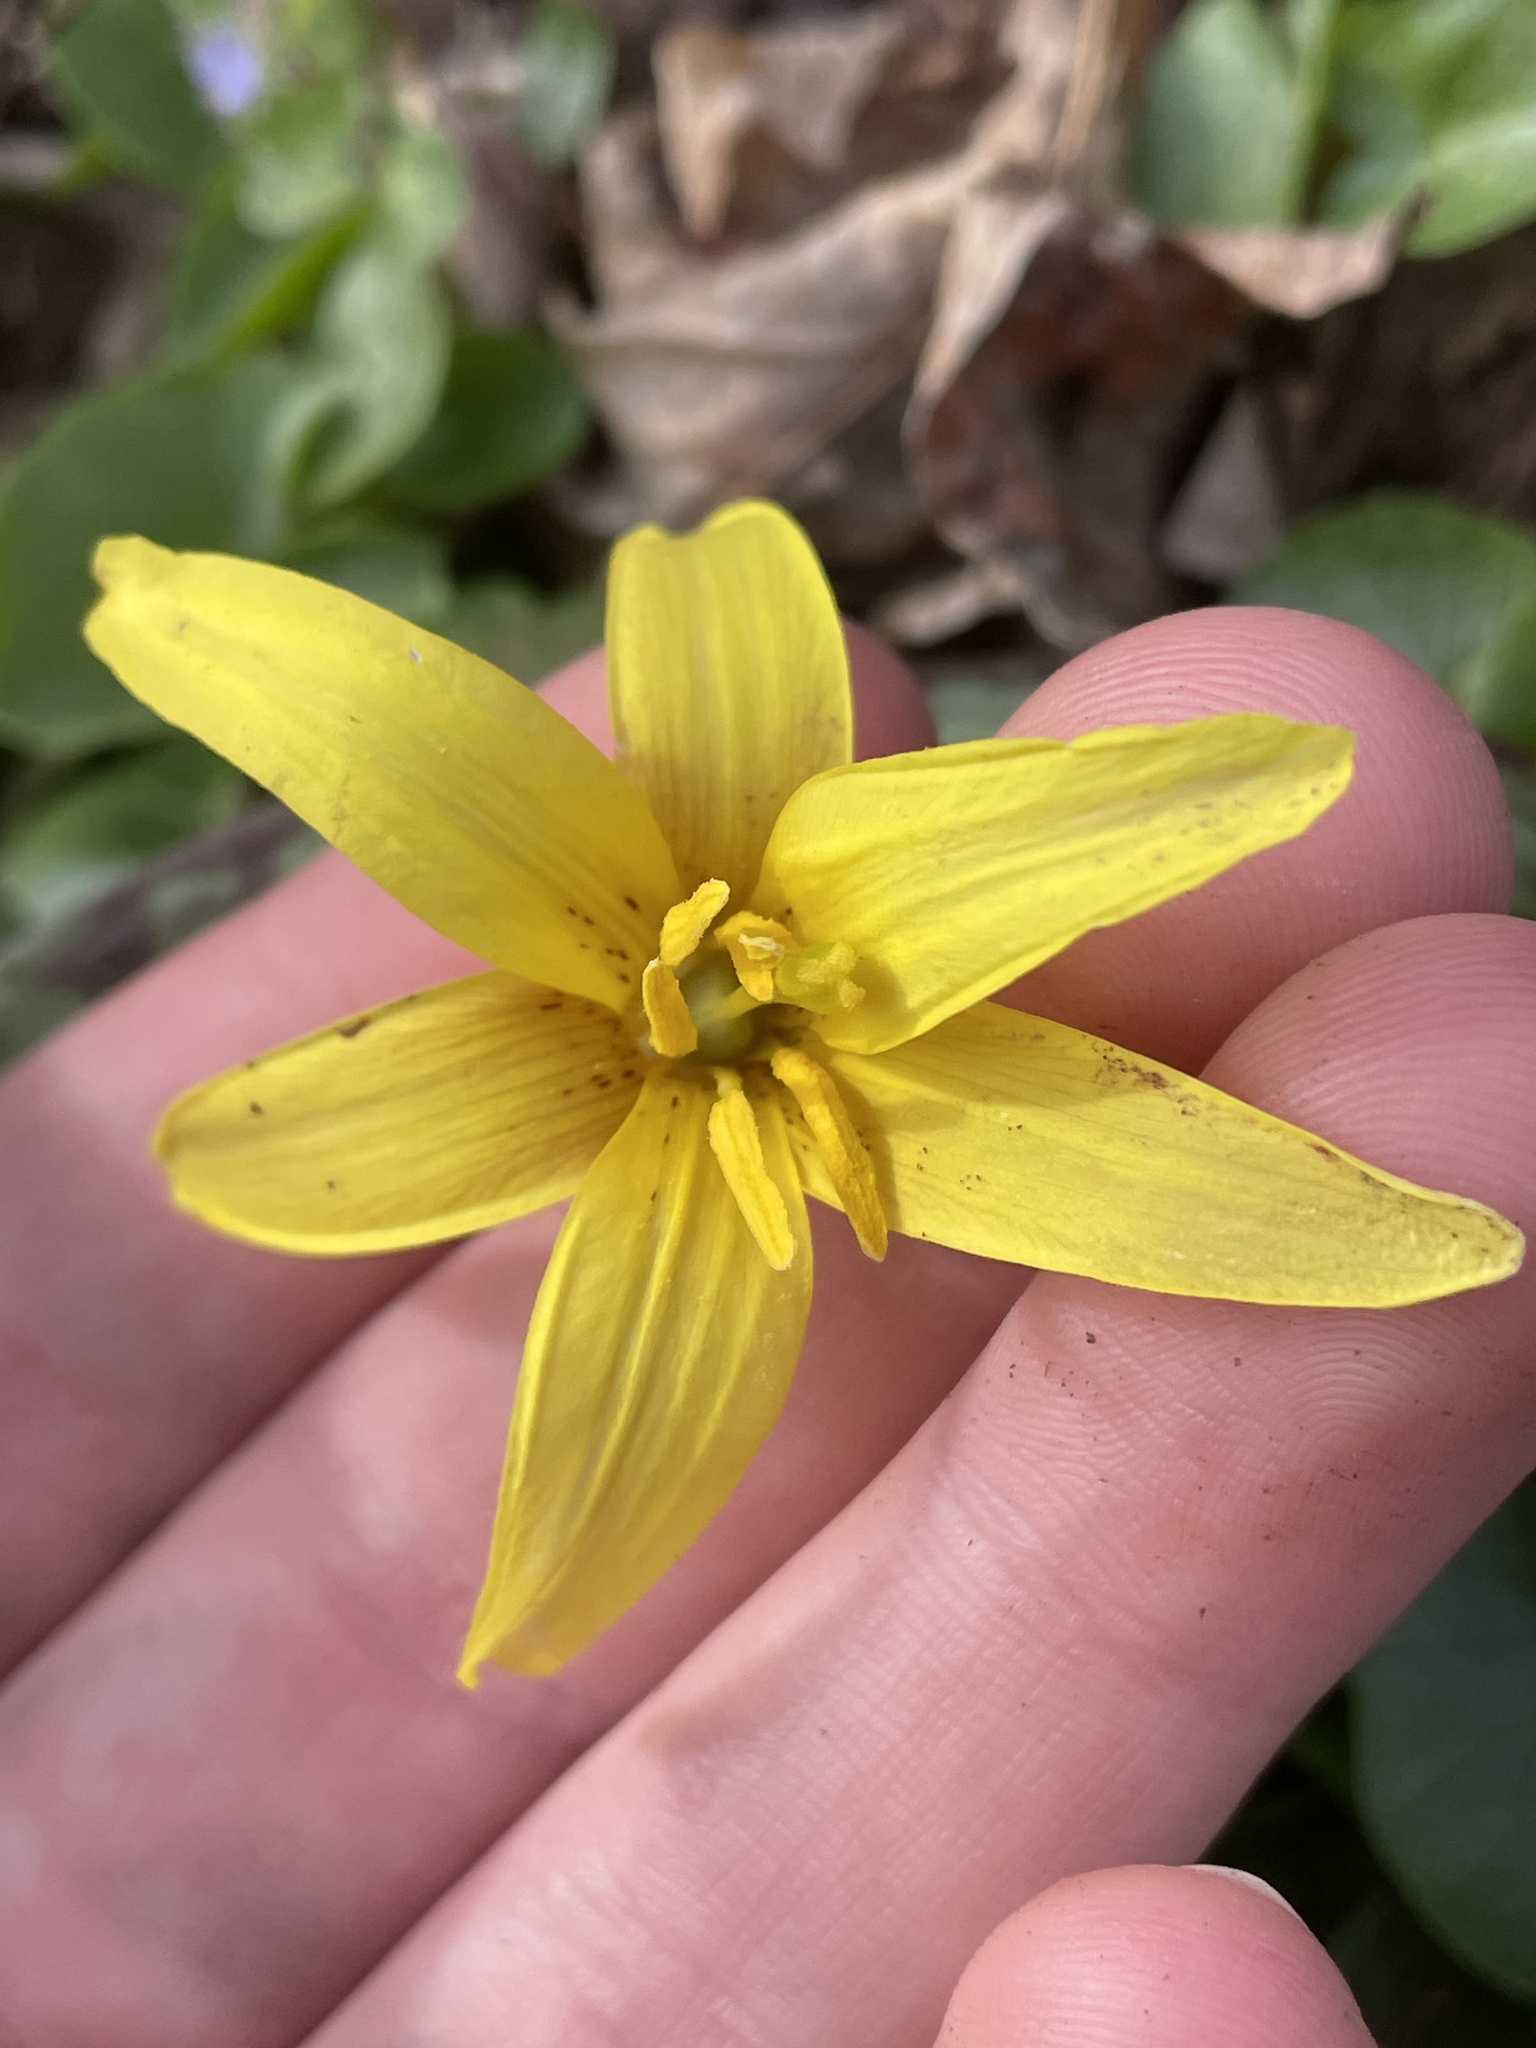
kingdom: Plantae
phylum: Tracheophyta
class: Liliopsida
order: Liliales
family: Liliaceae
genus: Erythronium
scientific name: Erythronium americanum
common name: Yellow adder's-tongue
